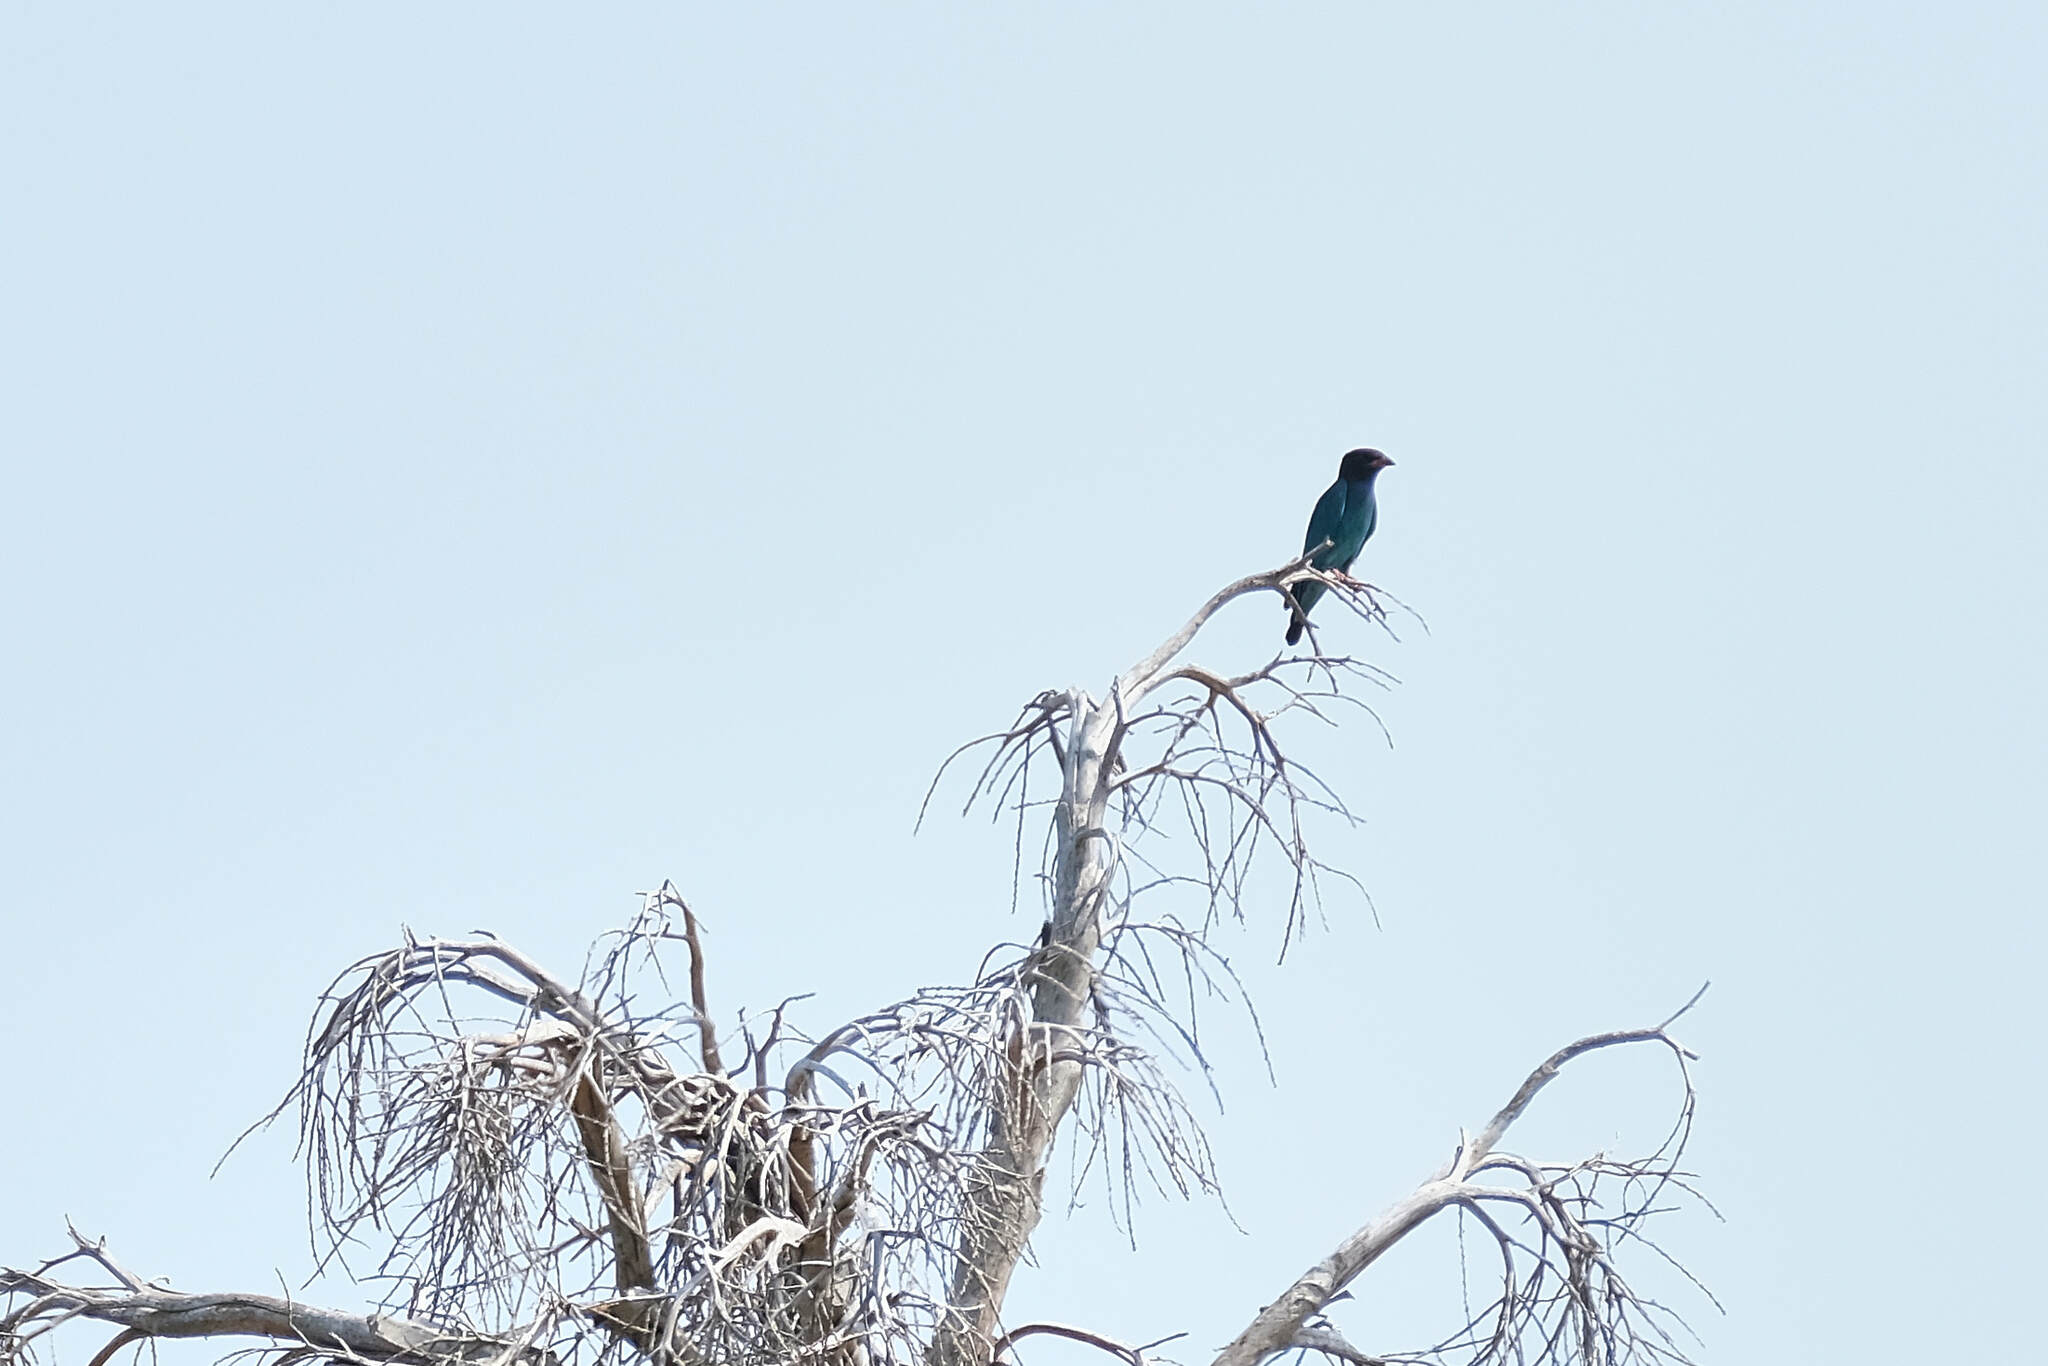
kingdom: Animalia
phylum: Chordata
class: Aves
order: Coraciiformes
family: Coraciidae
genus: Eurystomus
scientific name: Eurystomus orientalis
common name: Oriental dollarbird
